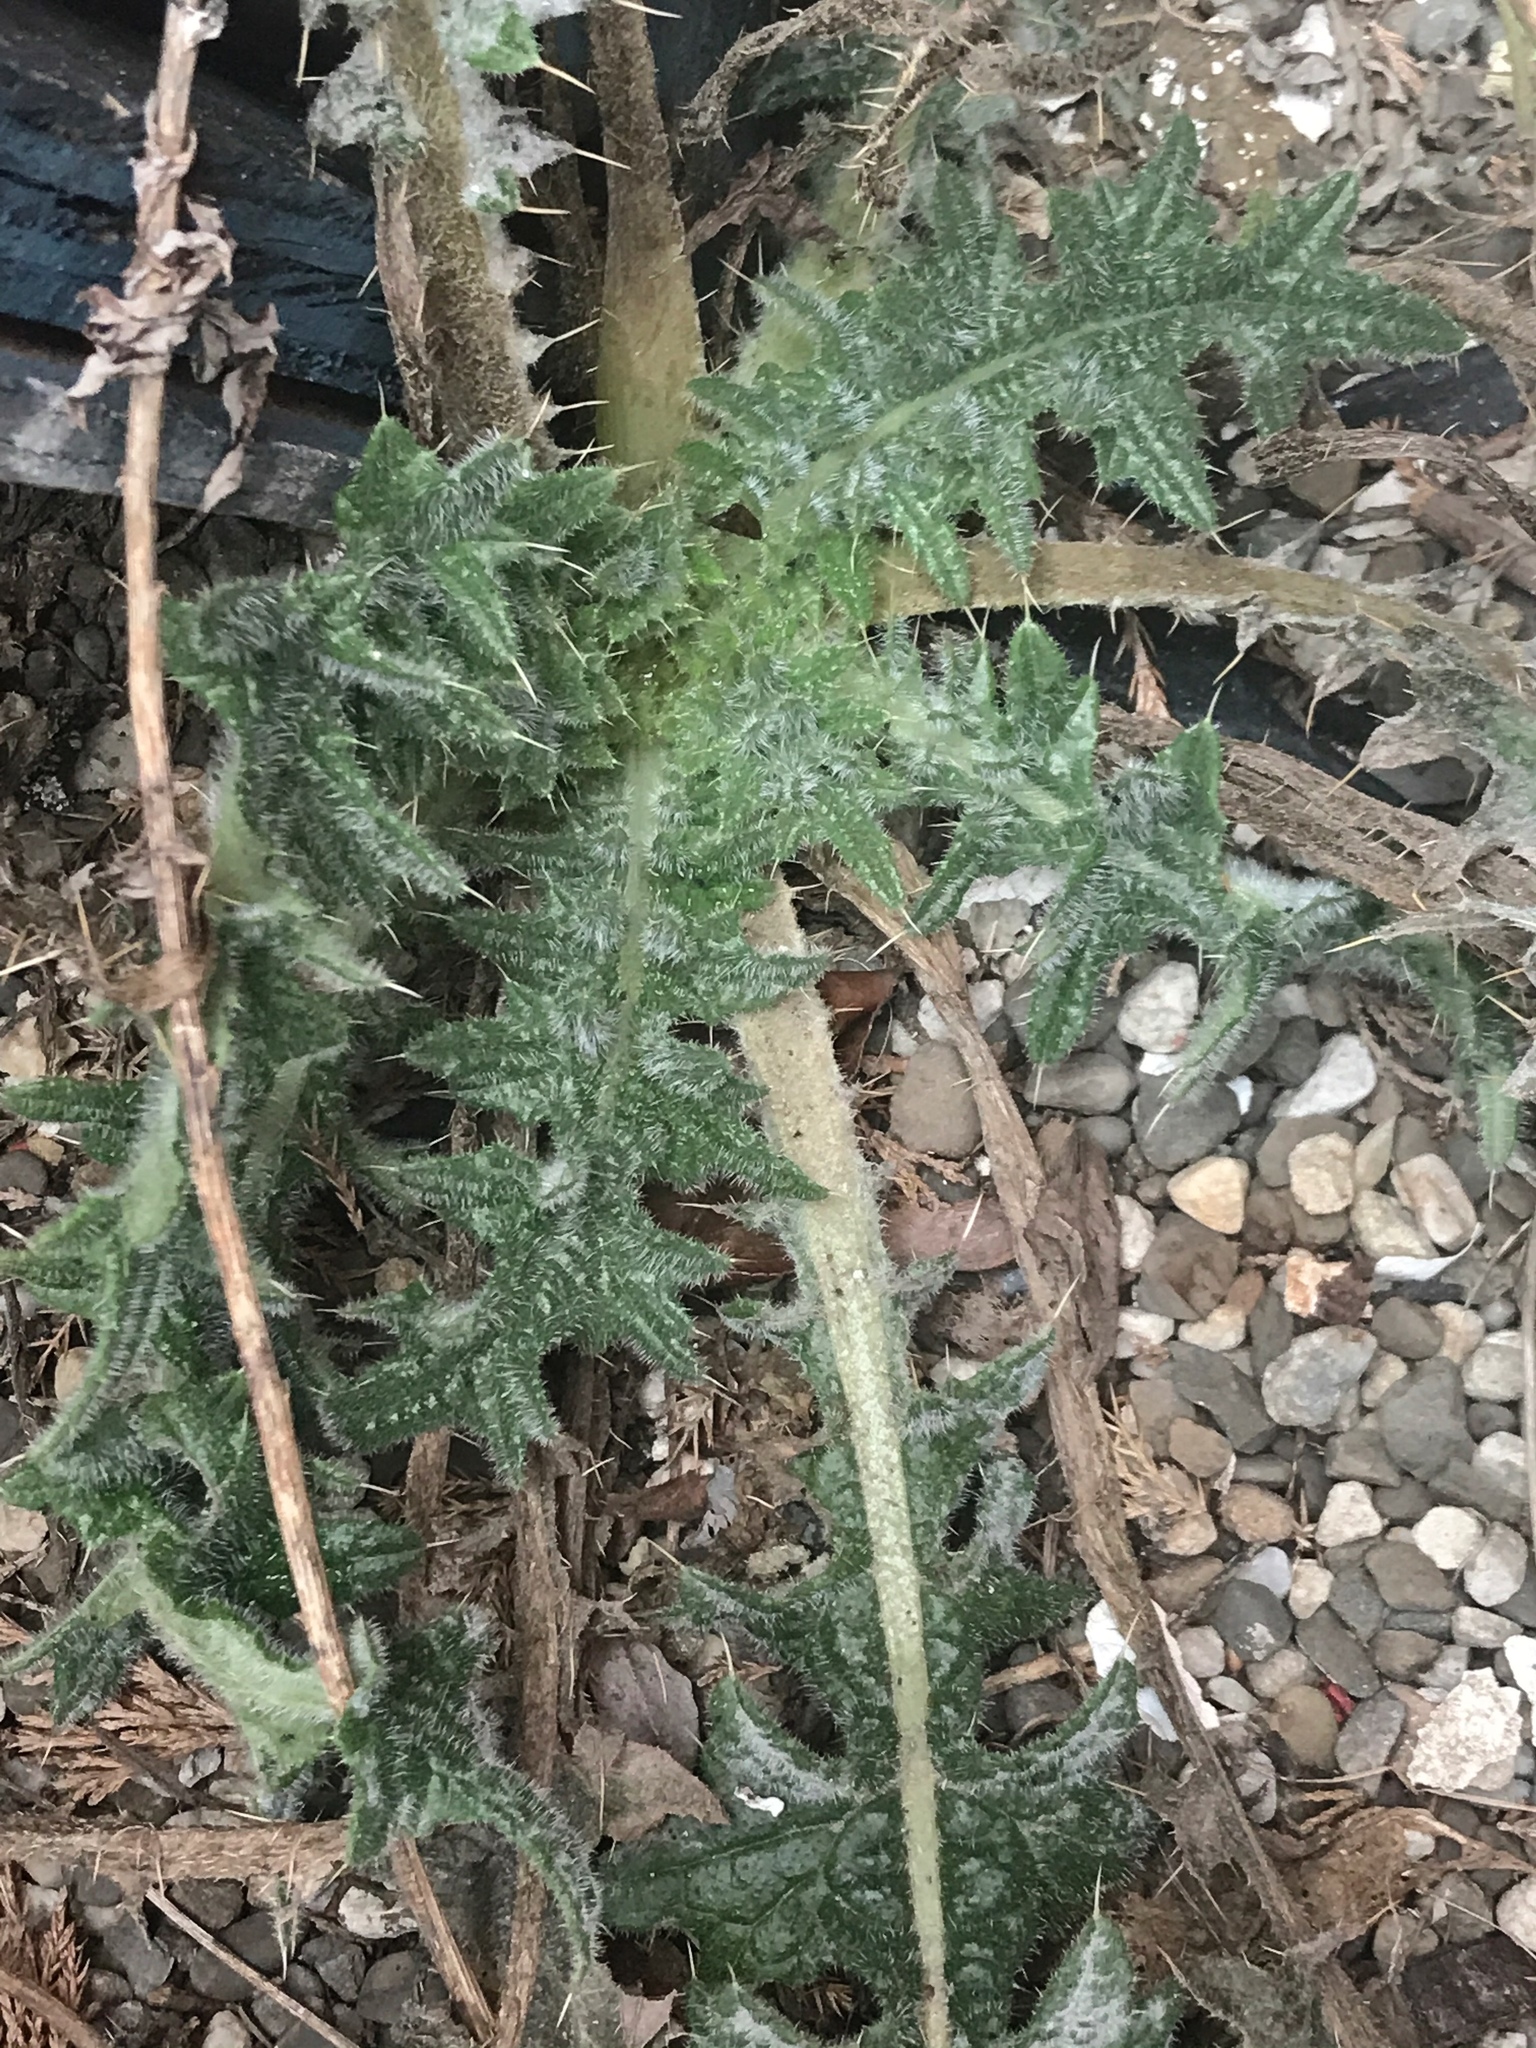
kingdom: Plantae
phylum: Tracheophyta
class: Magnoliopsida
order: Asterales
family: Asteraceae
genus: Cirsium
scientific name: Cirsium vulgare
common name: Bull thistle
